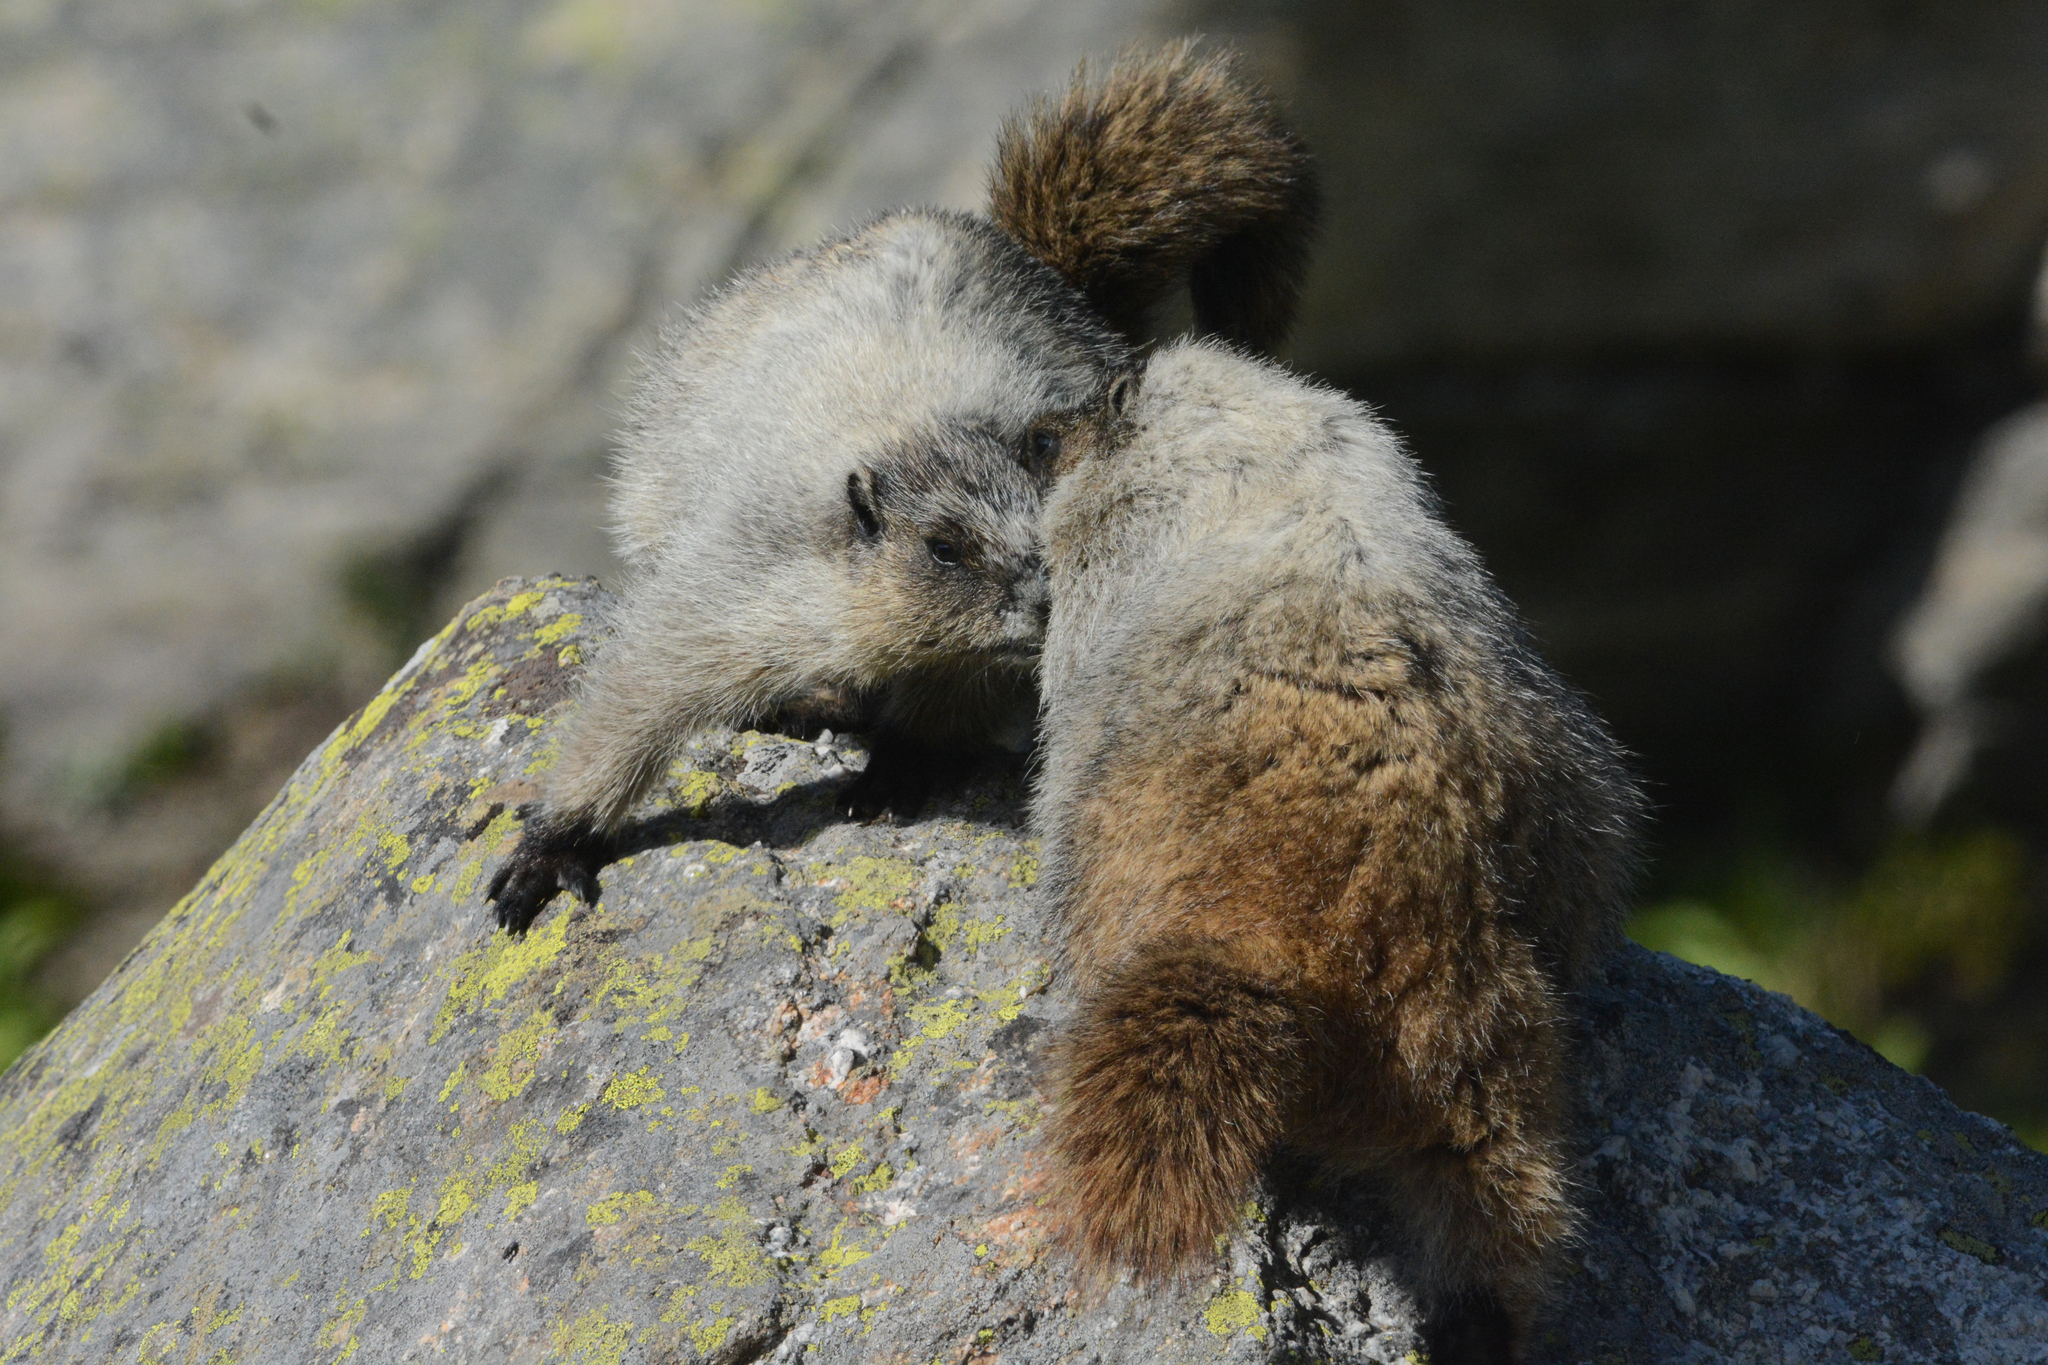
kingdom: Animalia
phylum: Chordata
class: Mammalia
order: Rodentia
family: Sciuridae
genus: Marmota
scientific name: Marmota caligata
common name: Hoary marmot
